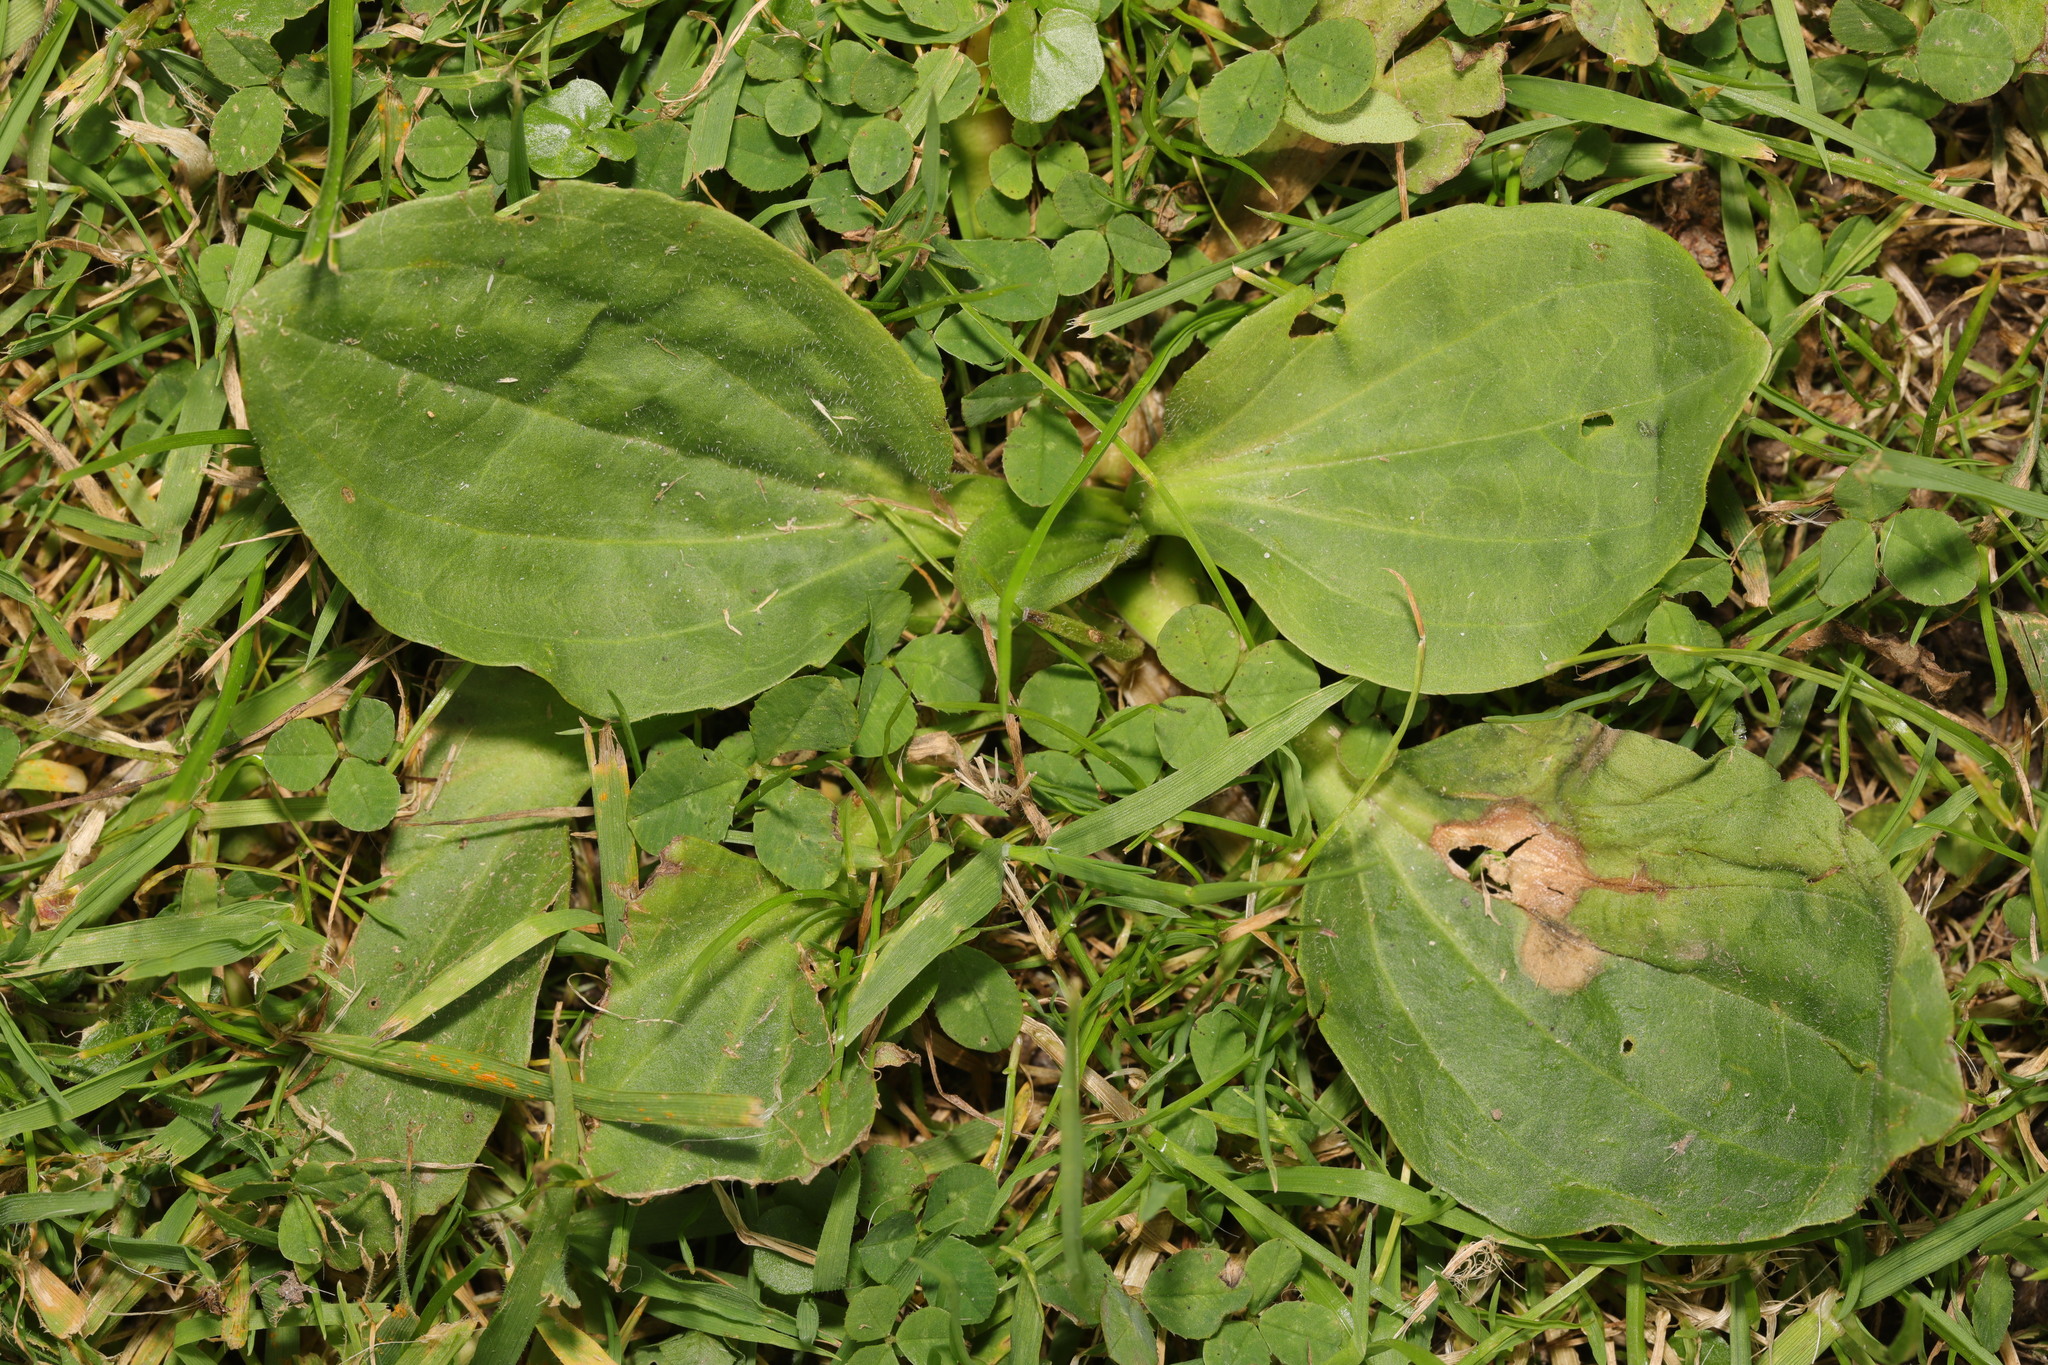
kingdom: Plantae
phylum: Tracheophyta
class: Magnoliopsida
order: Lamiales
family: Plantaginaceae
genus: Plantago
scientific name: Plantago major
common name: Common plantain
